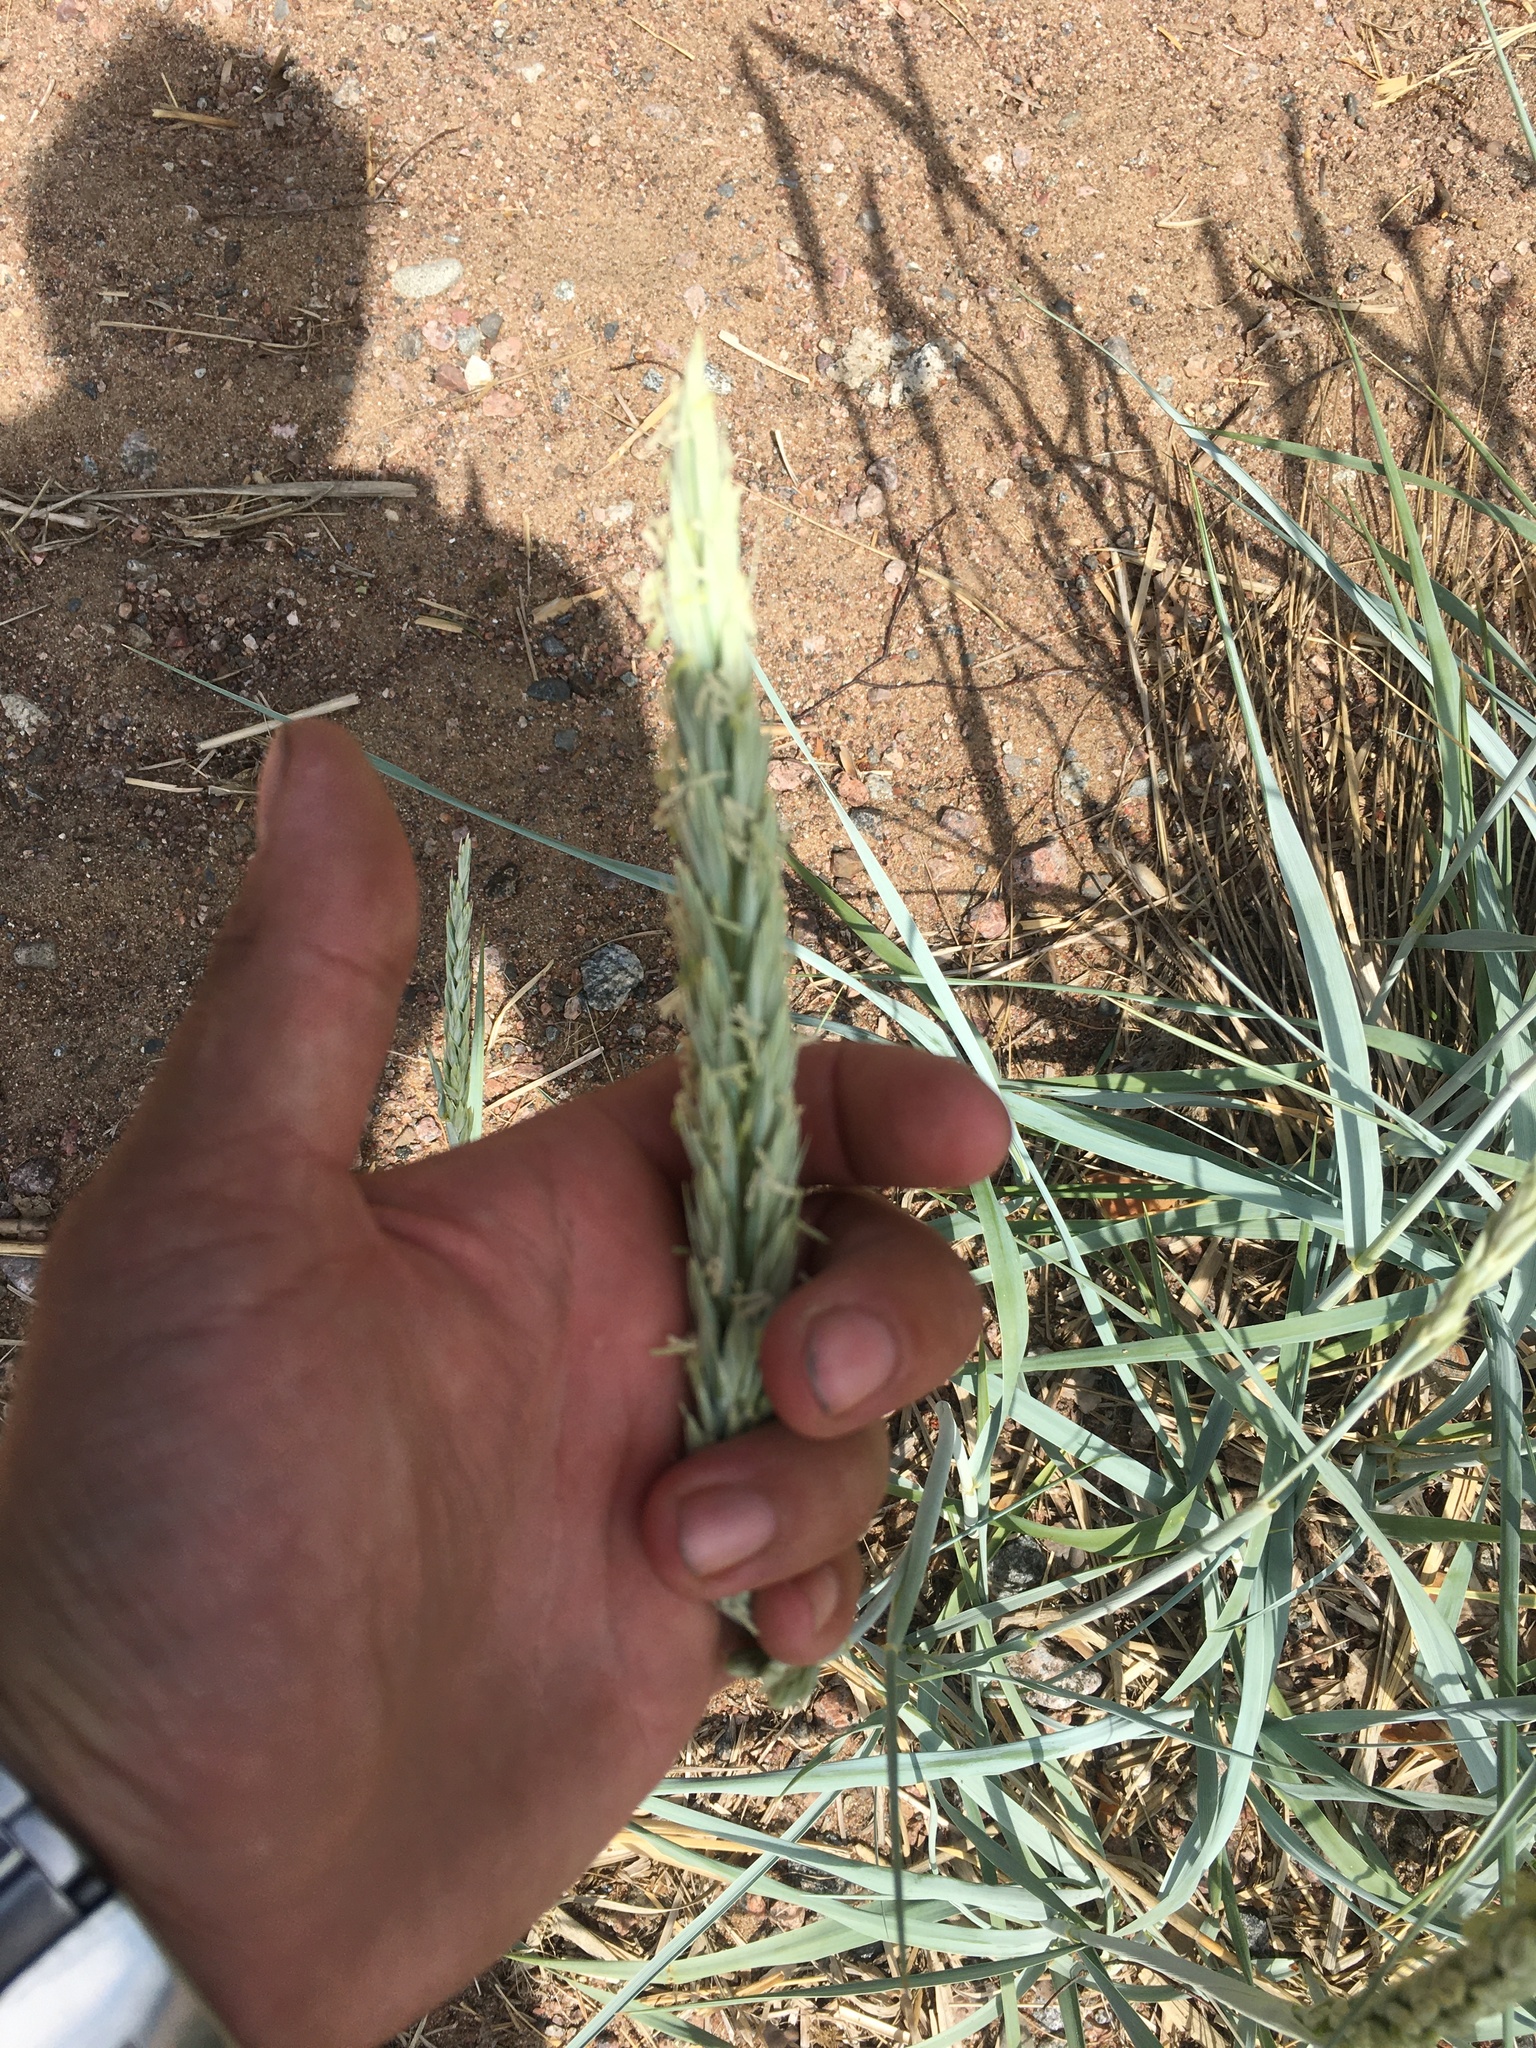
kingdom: Plantae
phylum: Tracheophyta
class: Liliopsida
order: Poales
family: Poaceae
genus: Leymus
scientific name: Leymus arenarius
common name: Lyme-grass
